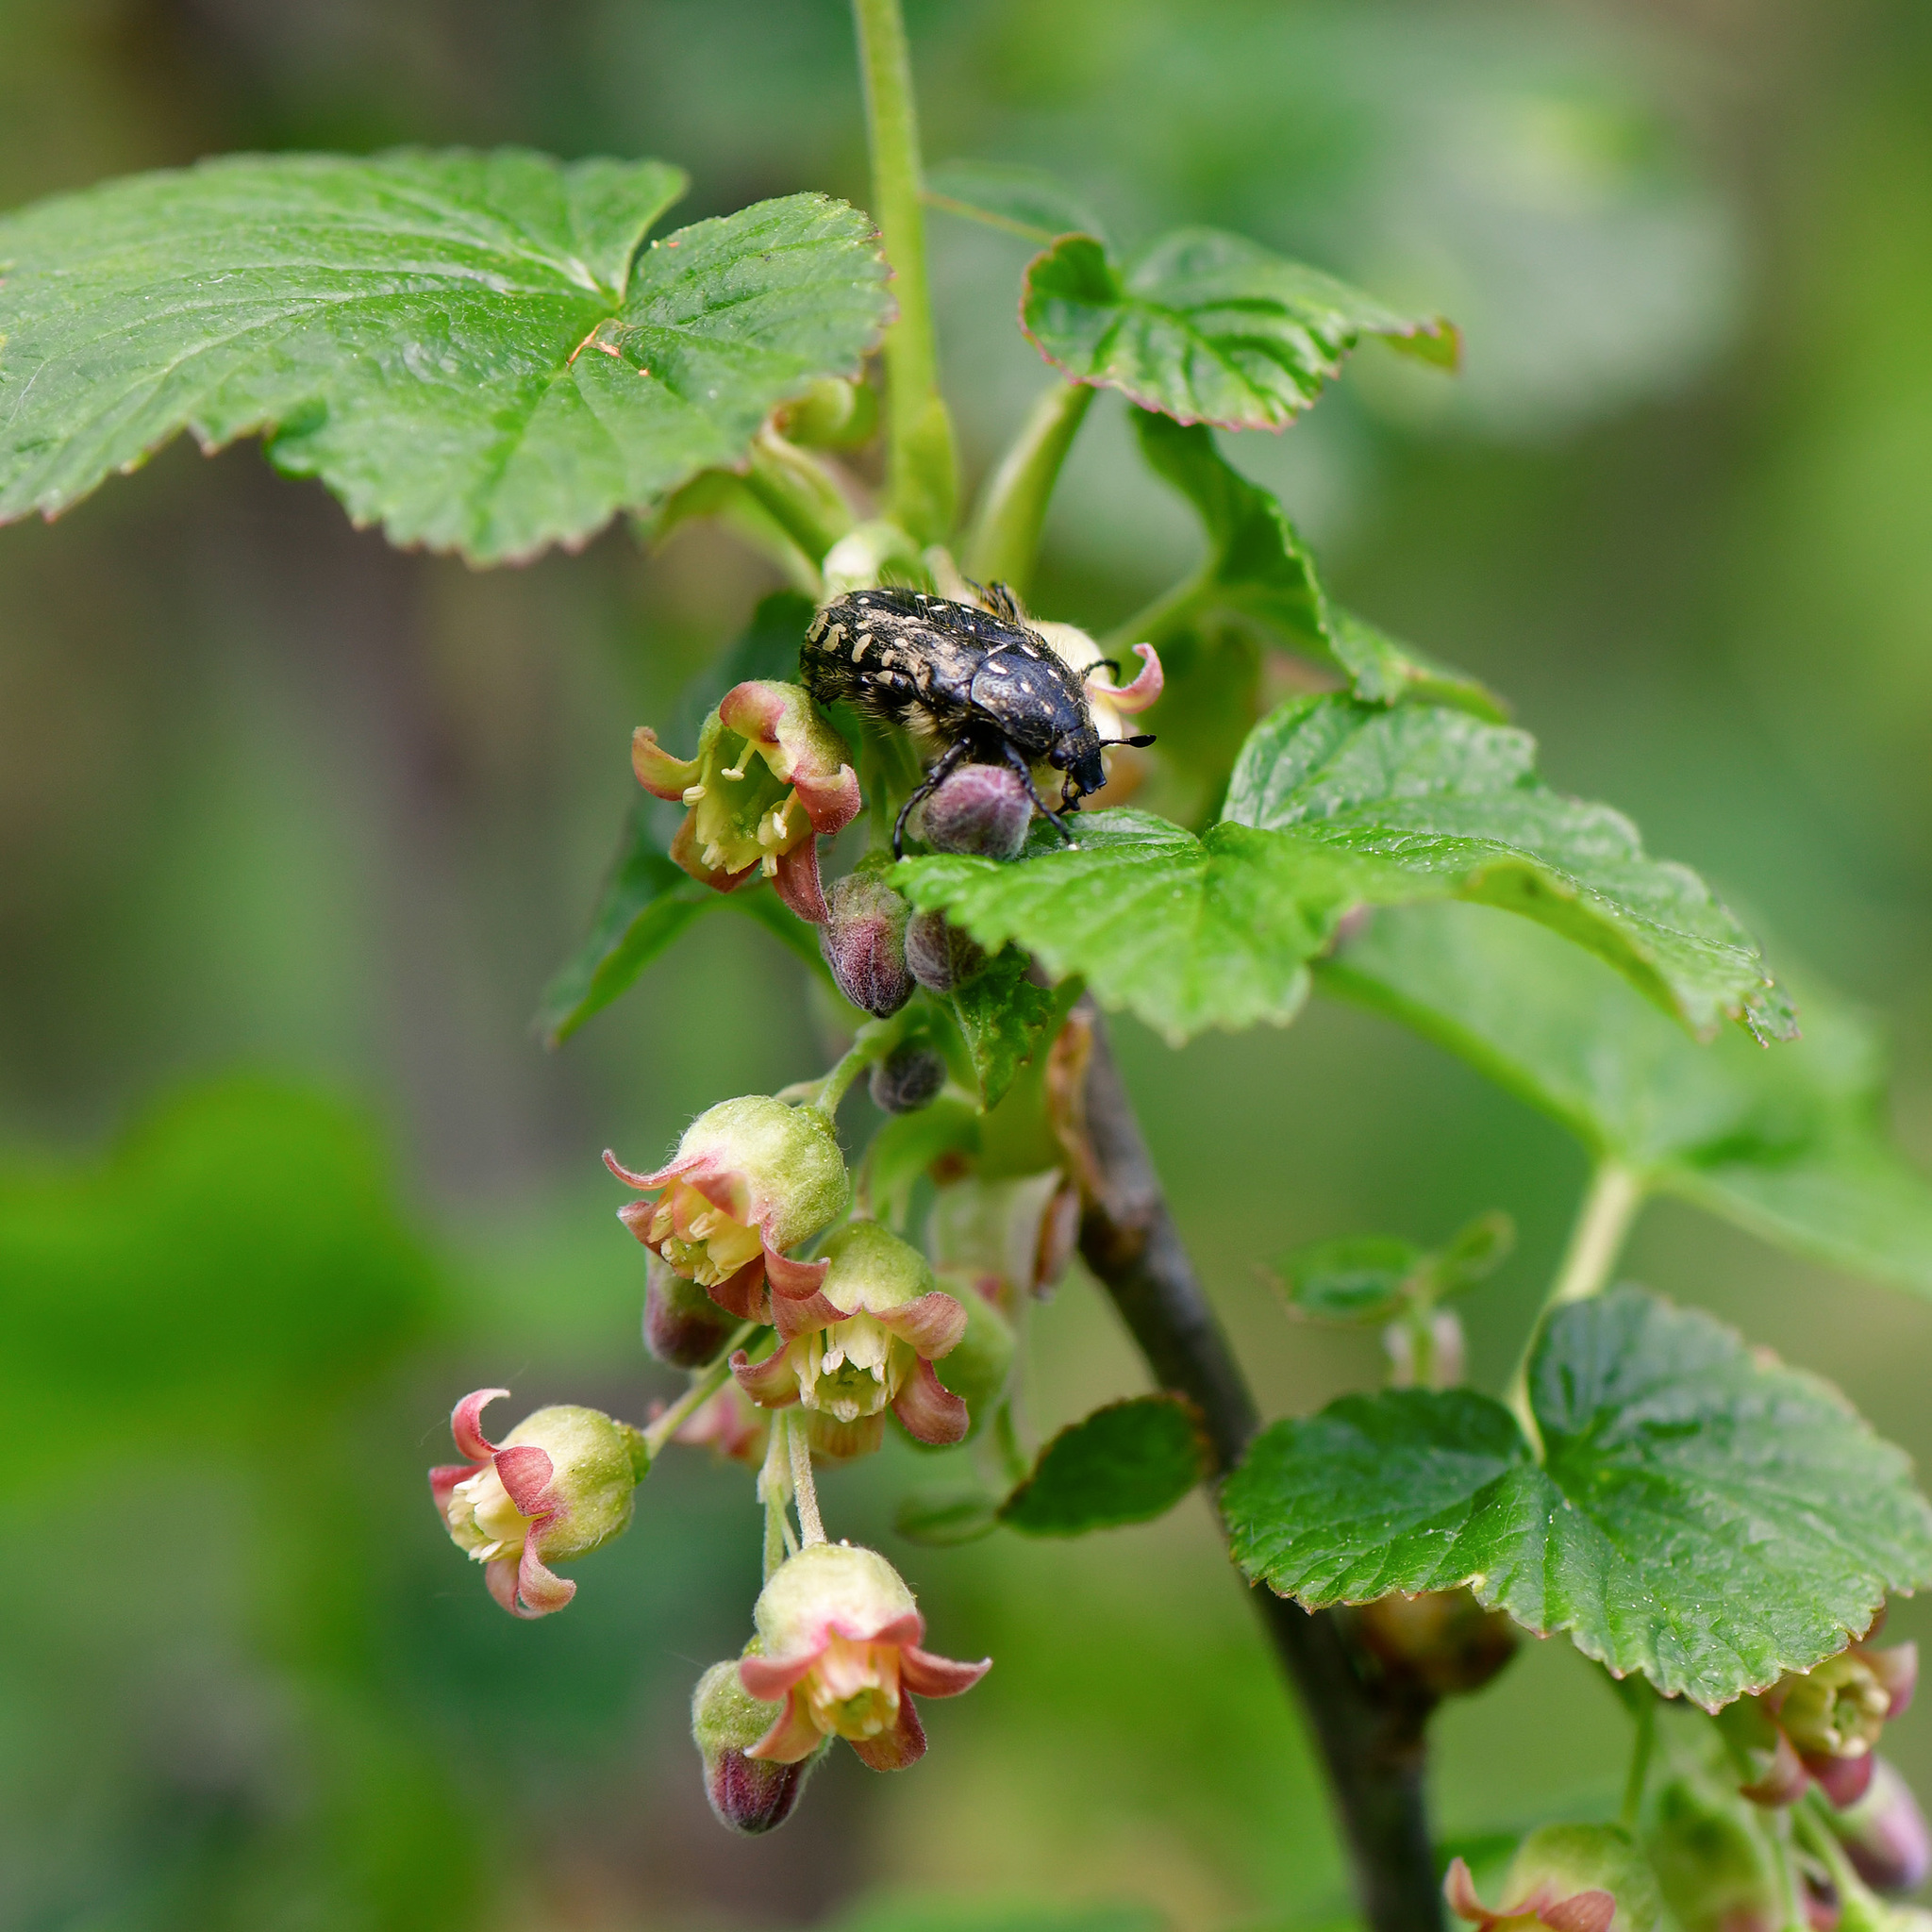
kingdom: Animalia
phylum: Arthropoda
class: Insecta
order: Coleoptera
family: Scarabaeidae
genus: Tropinota
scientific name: Tropinota hirta
